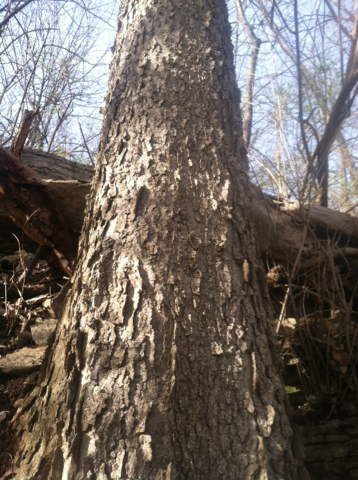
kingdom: Plantae
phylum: Tracheophyta
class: Magnoliopsida
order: Rosales
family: Cannabaceae
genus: Celtis
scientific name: Celtis occidentalis
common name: Common hackberry
